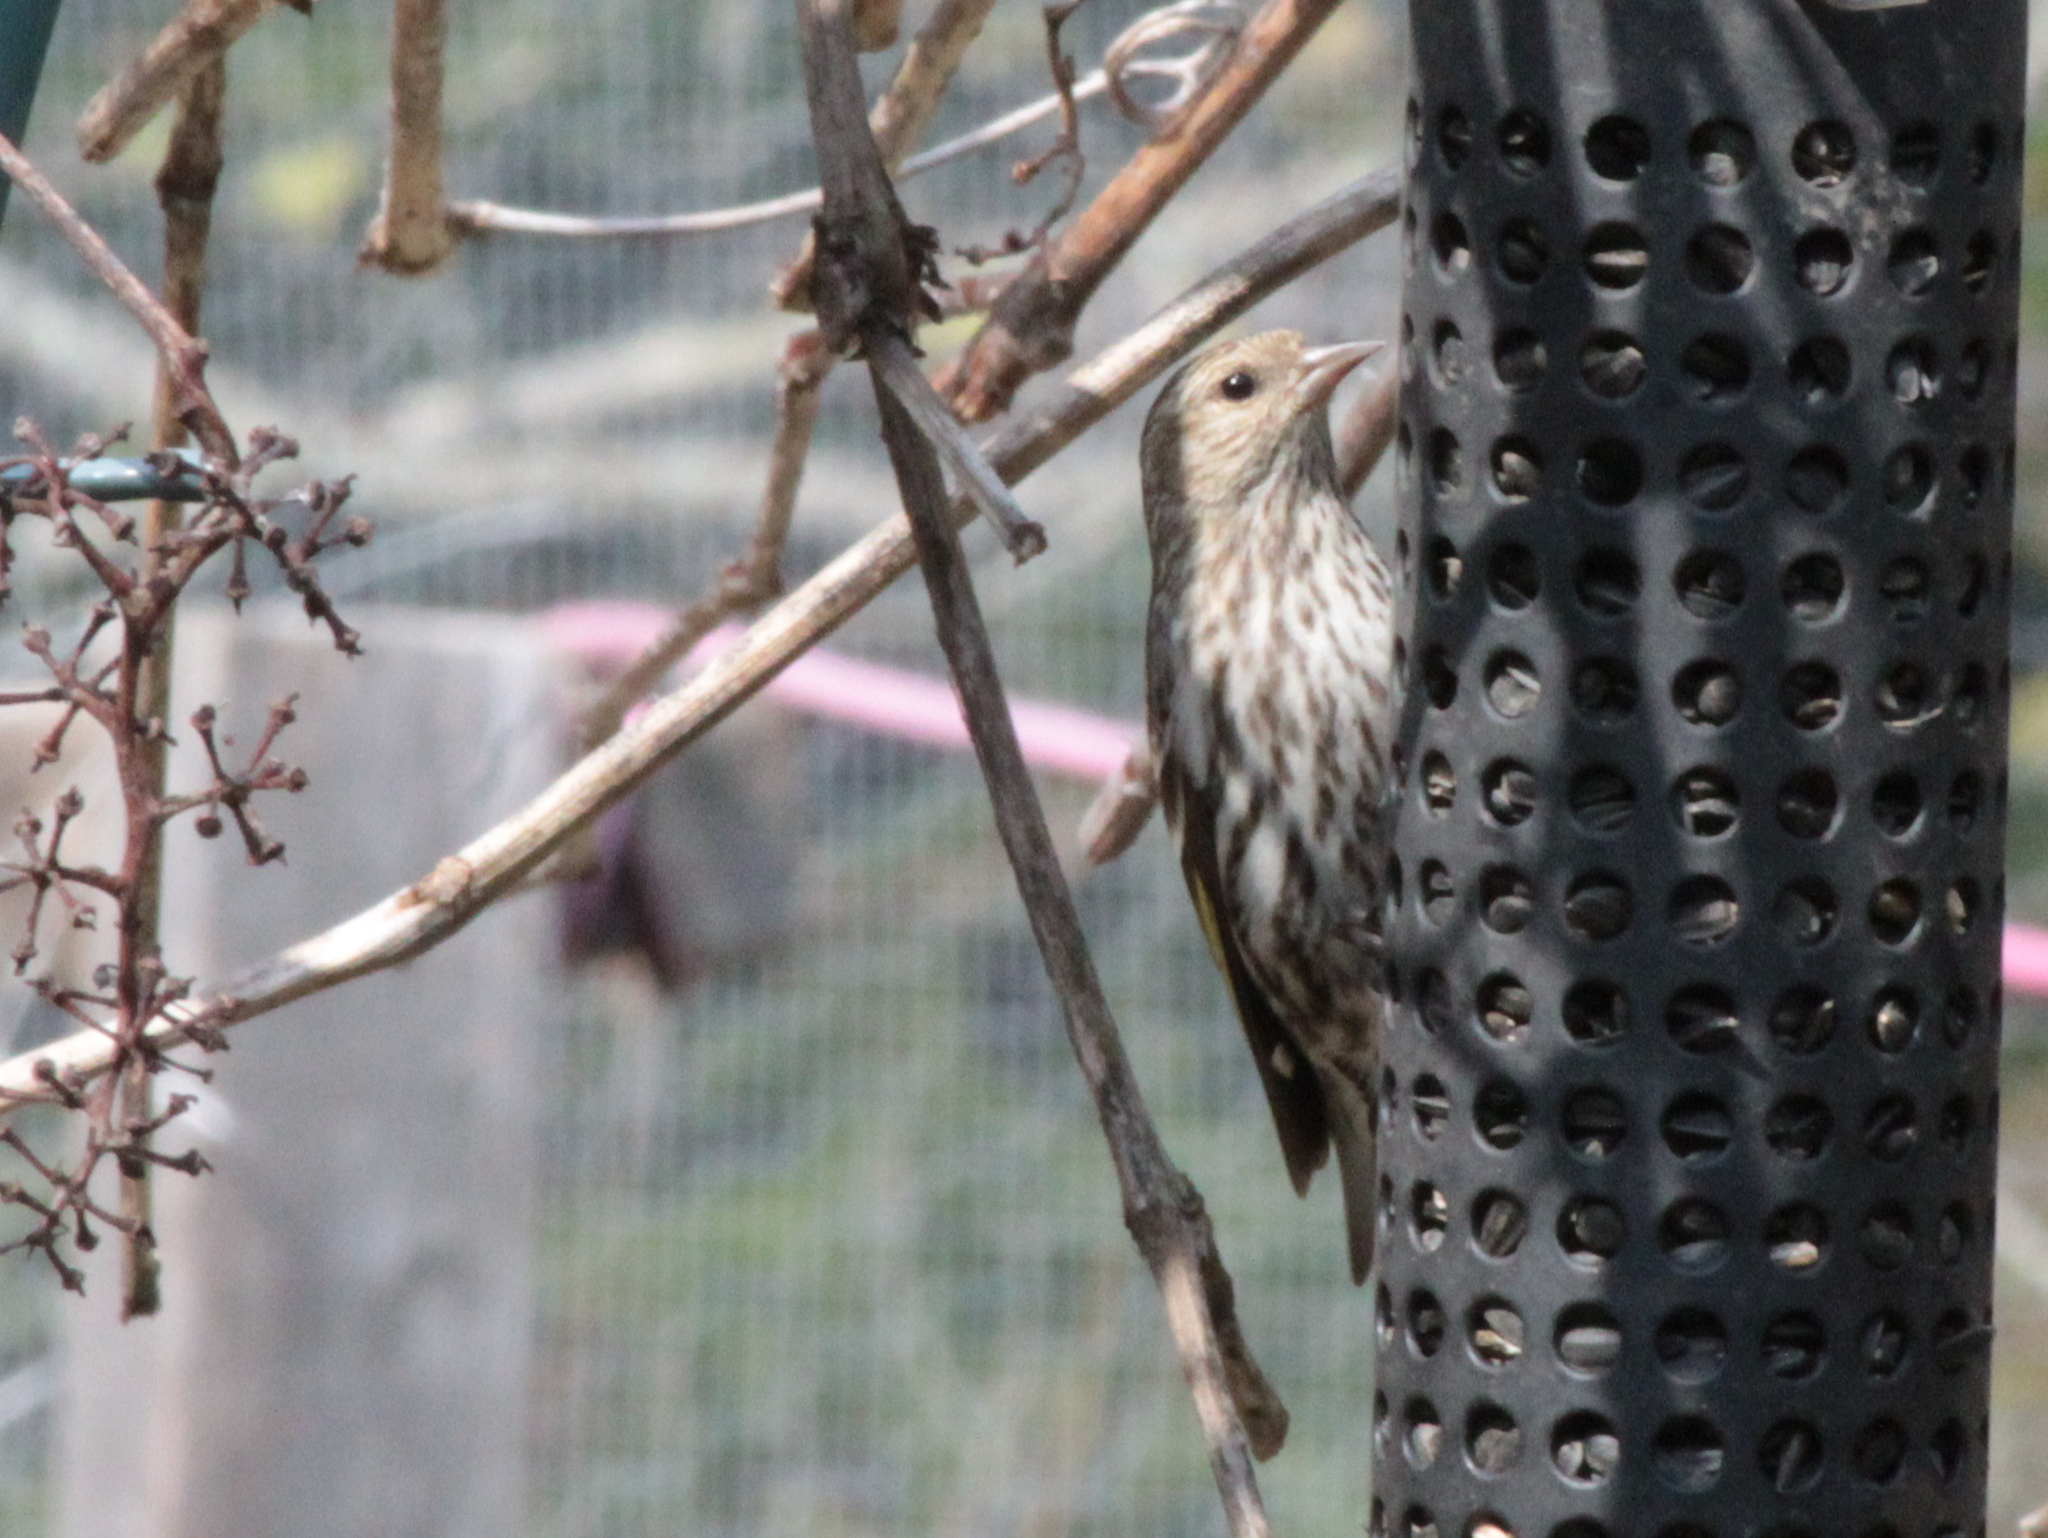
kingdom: Animalia
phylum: Chordata
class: Aves
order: Passeriformes
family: Fringillidae
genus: Spinus
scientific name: Spinus pinus
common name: Pine siskin
